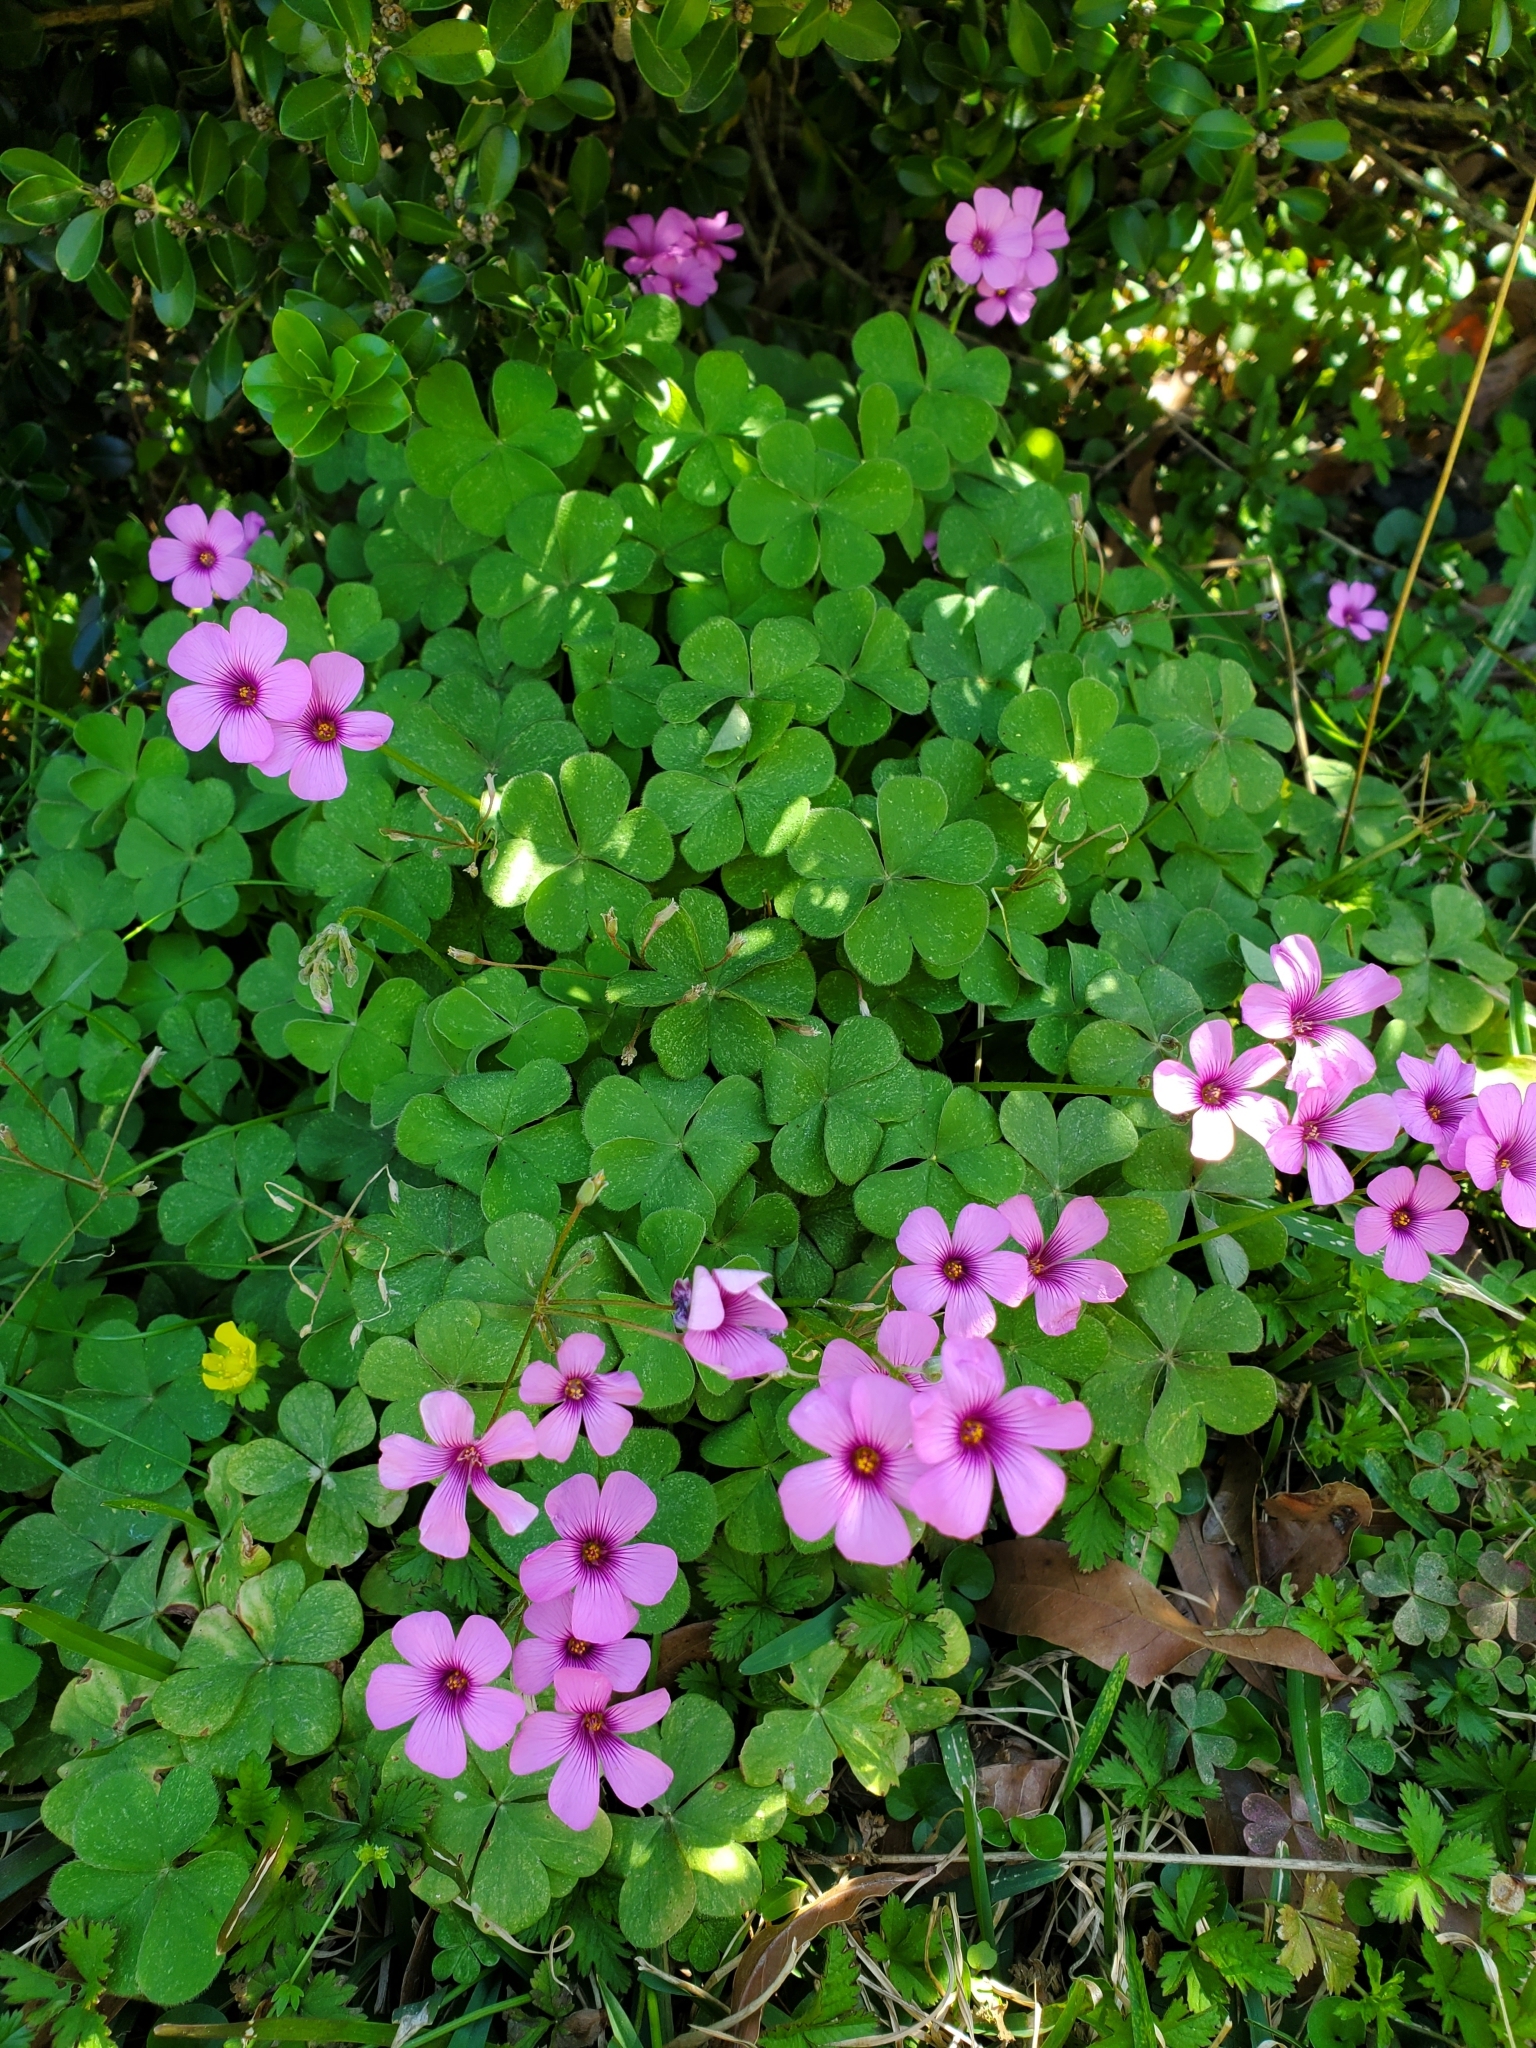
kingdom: Plantae
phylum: Tracheophyta
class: Magnoliopsida
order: Oxalidales
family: Oxalidaceae
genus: Oxalis
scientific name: Oxalis articulata
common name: Pink-sorrel
